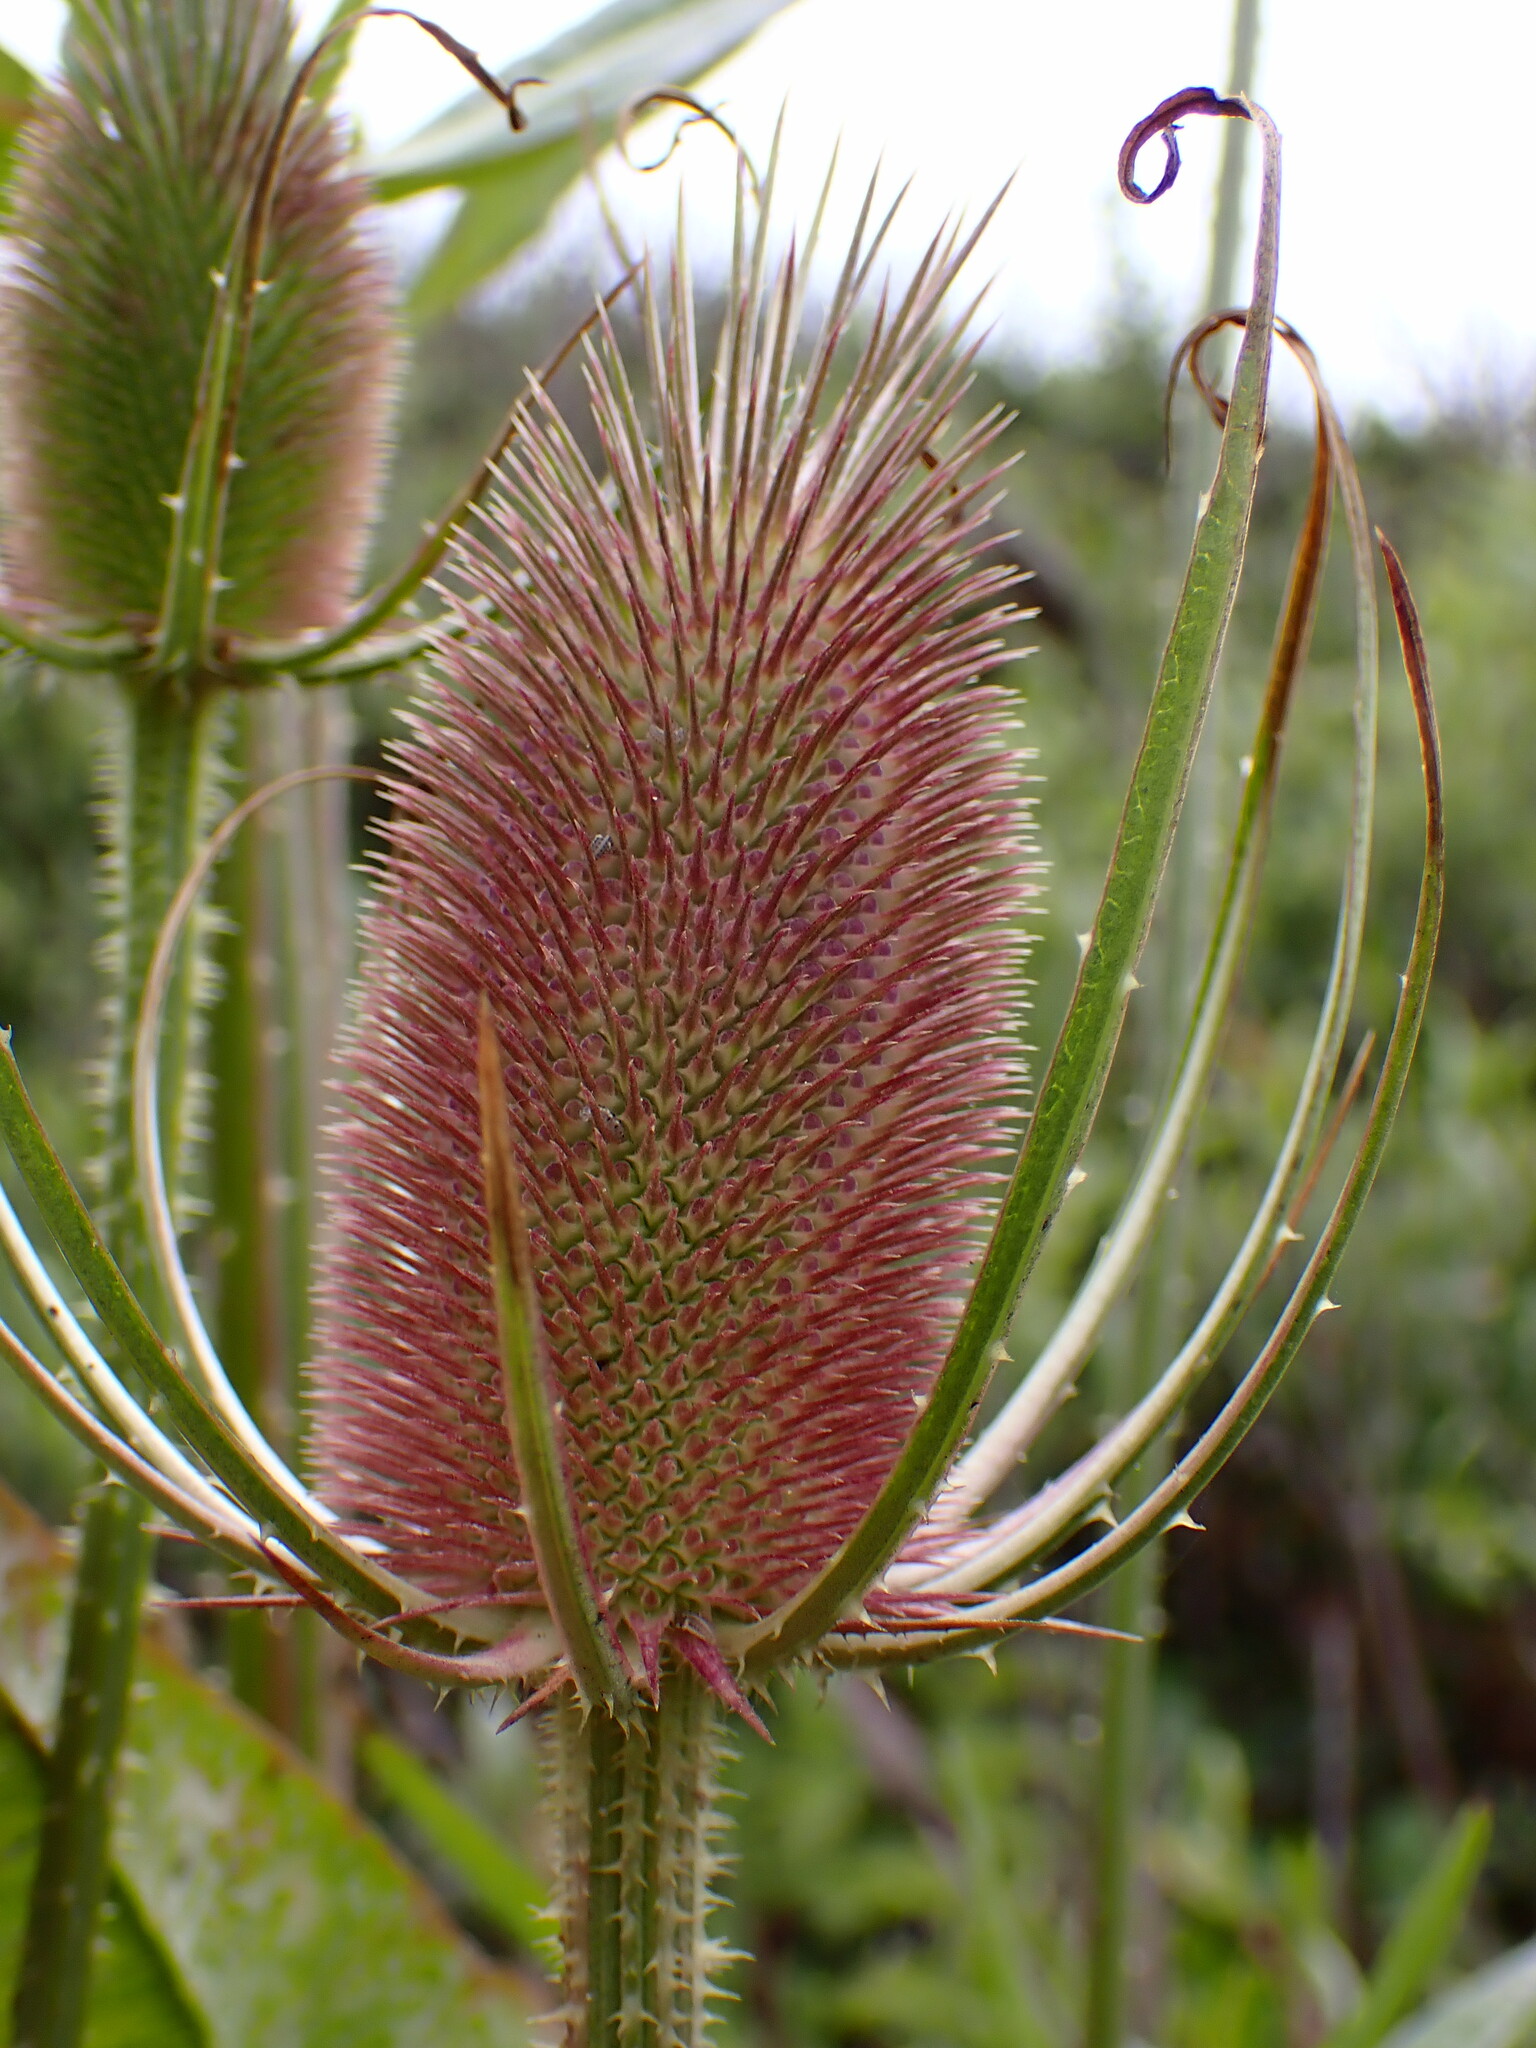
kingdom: Plantae
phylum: Tracheophyta
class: Magnoliopsida
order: Dipsacales
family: Caprifoliaceae
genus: Dipsacus
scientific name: Dipsacus fullonum
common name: Teasel
